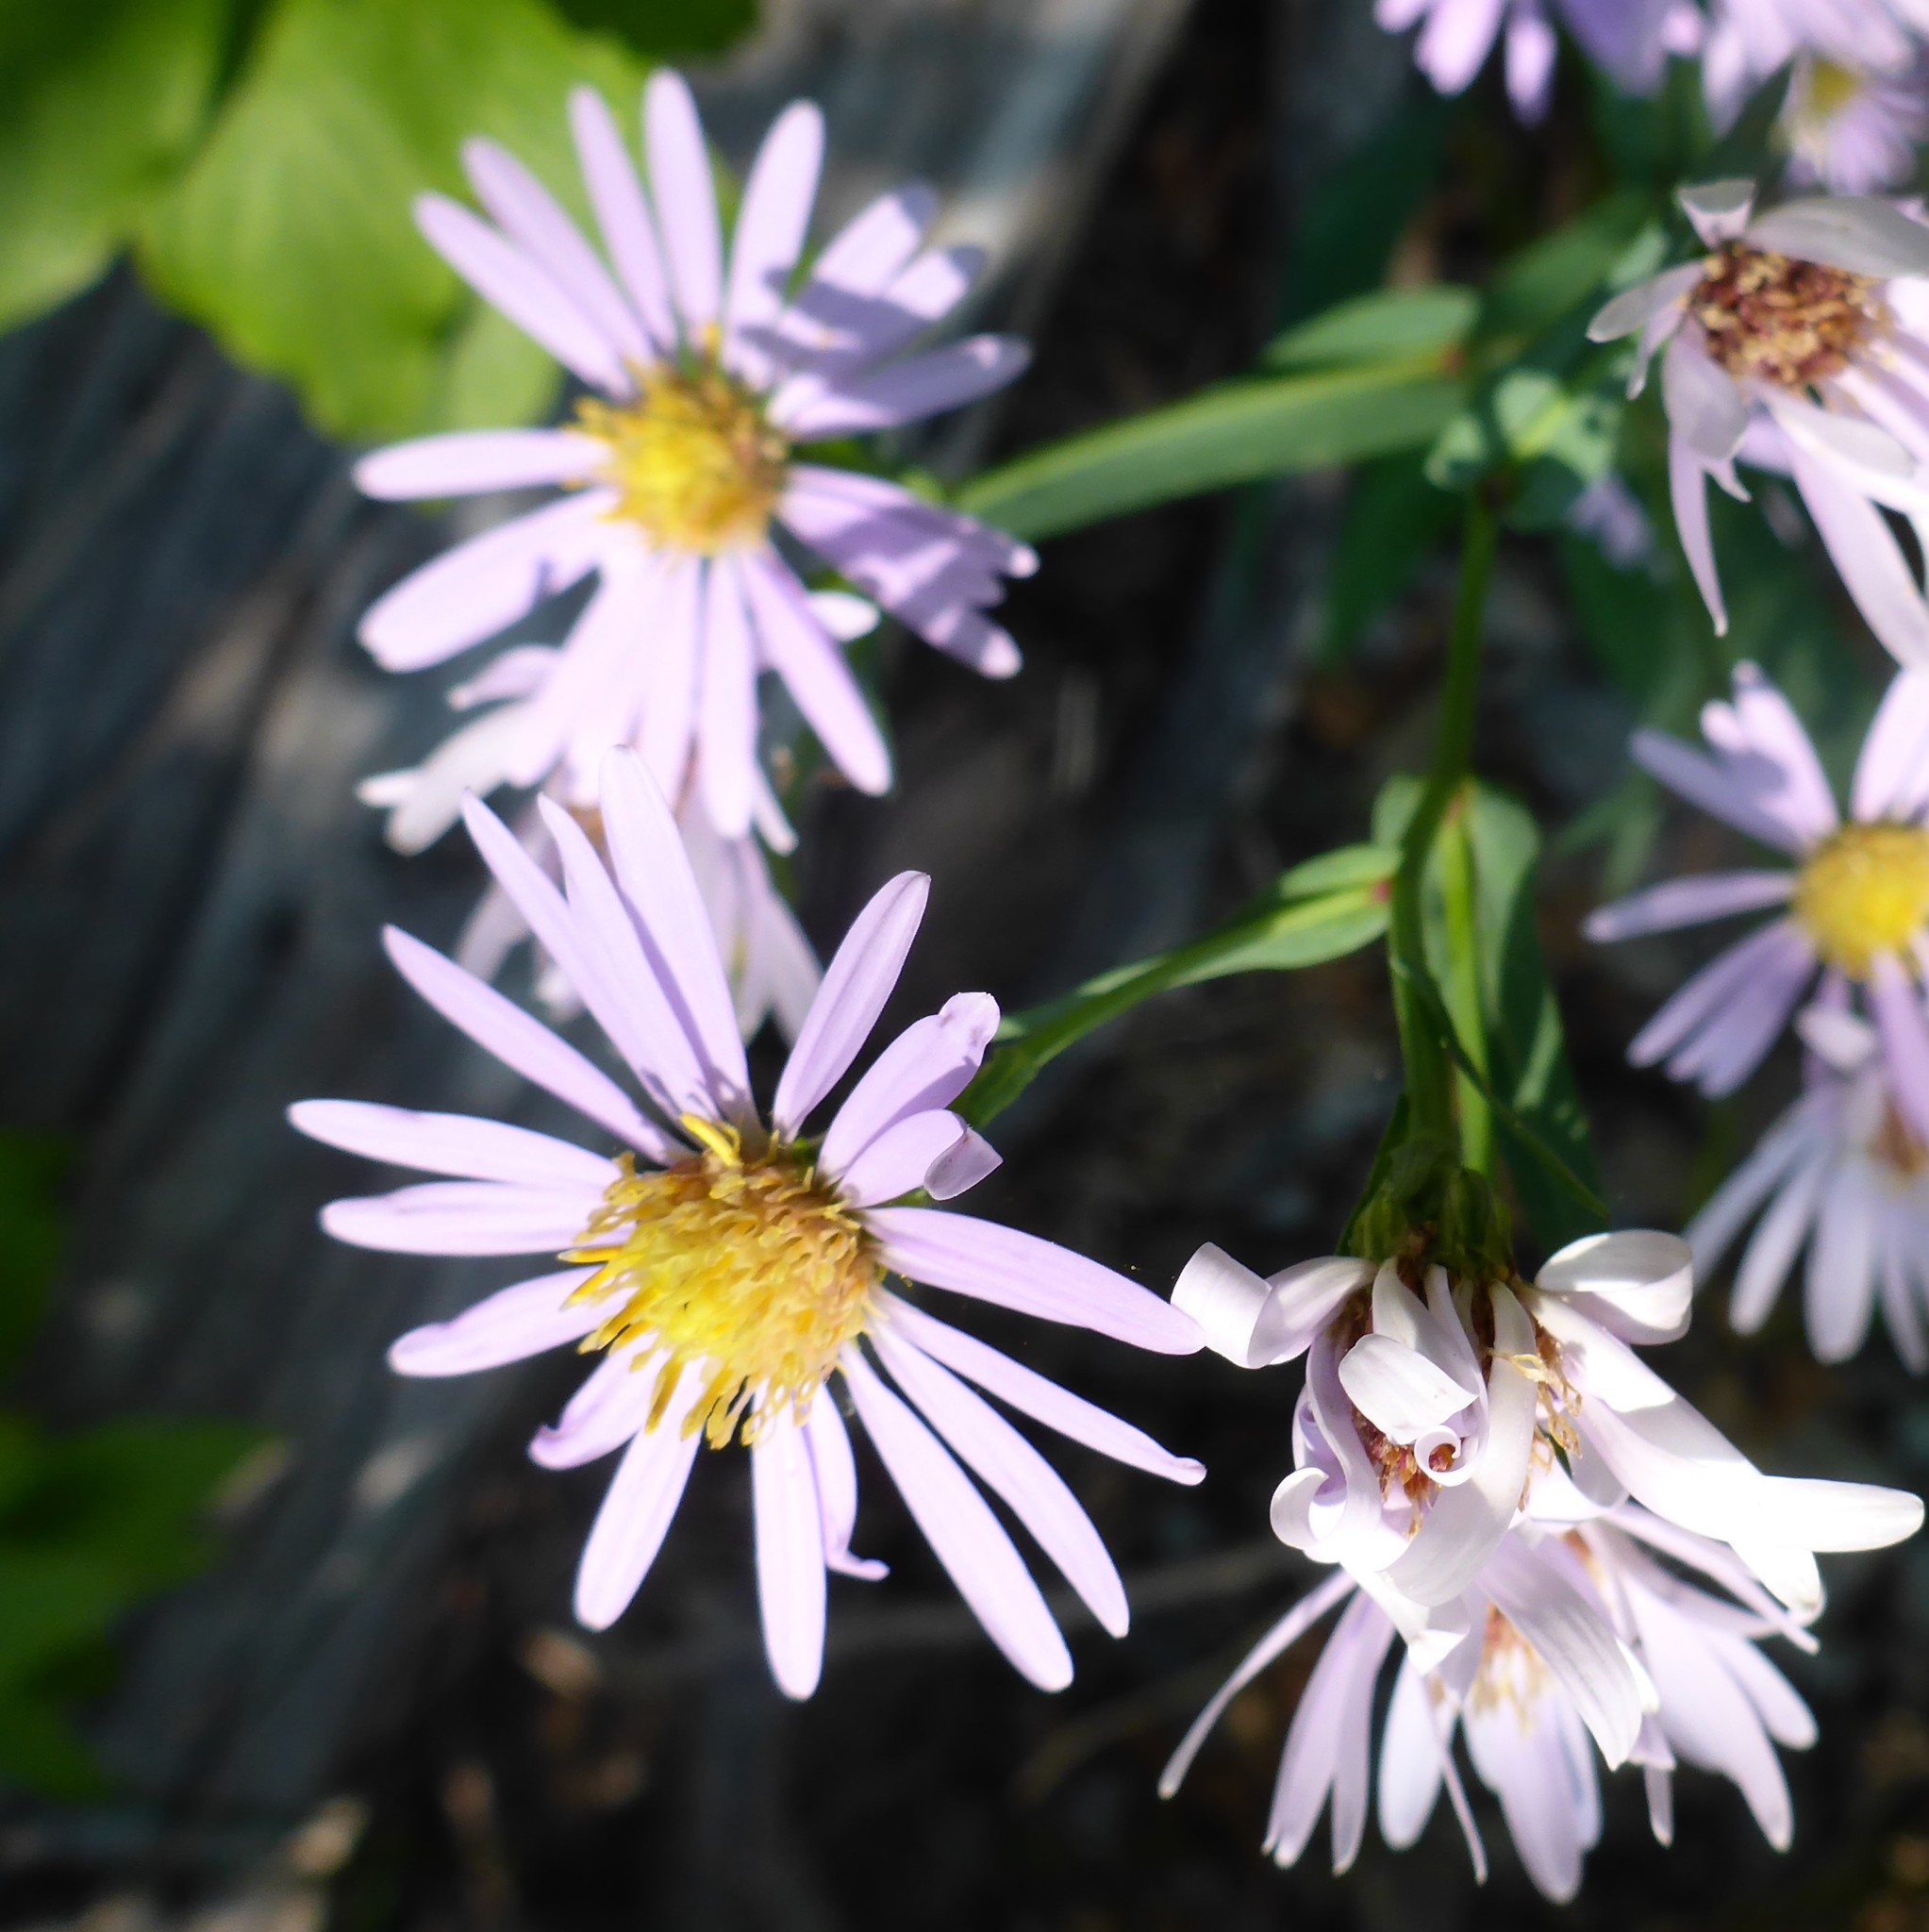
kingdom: Plantae
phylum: Tracheophyta
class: Magnoliopsida
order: Asterales
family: Asteraceae
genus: Symphyotrichum
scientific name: Symphyotrichum laeve
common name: Glaucous aster
